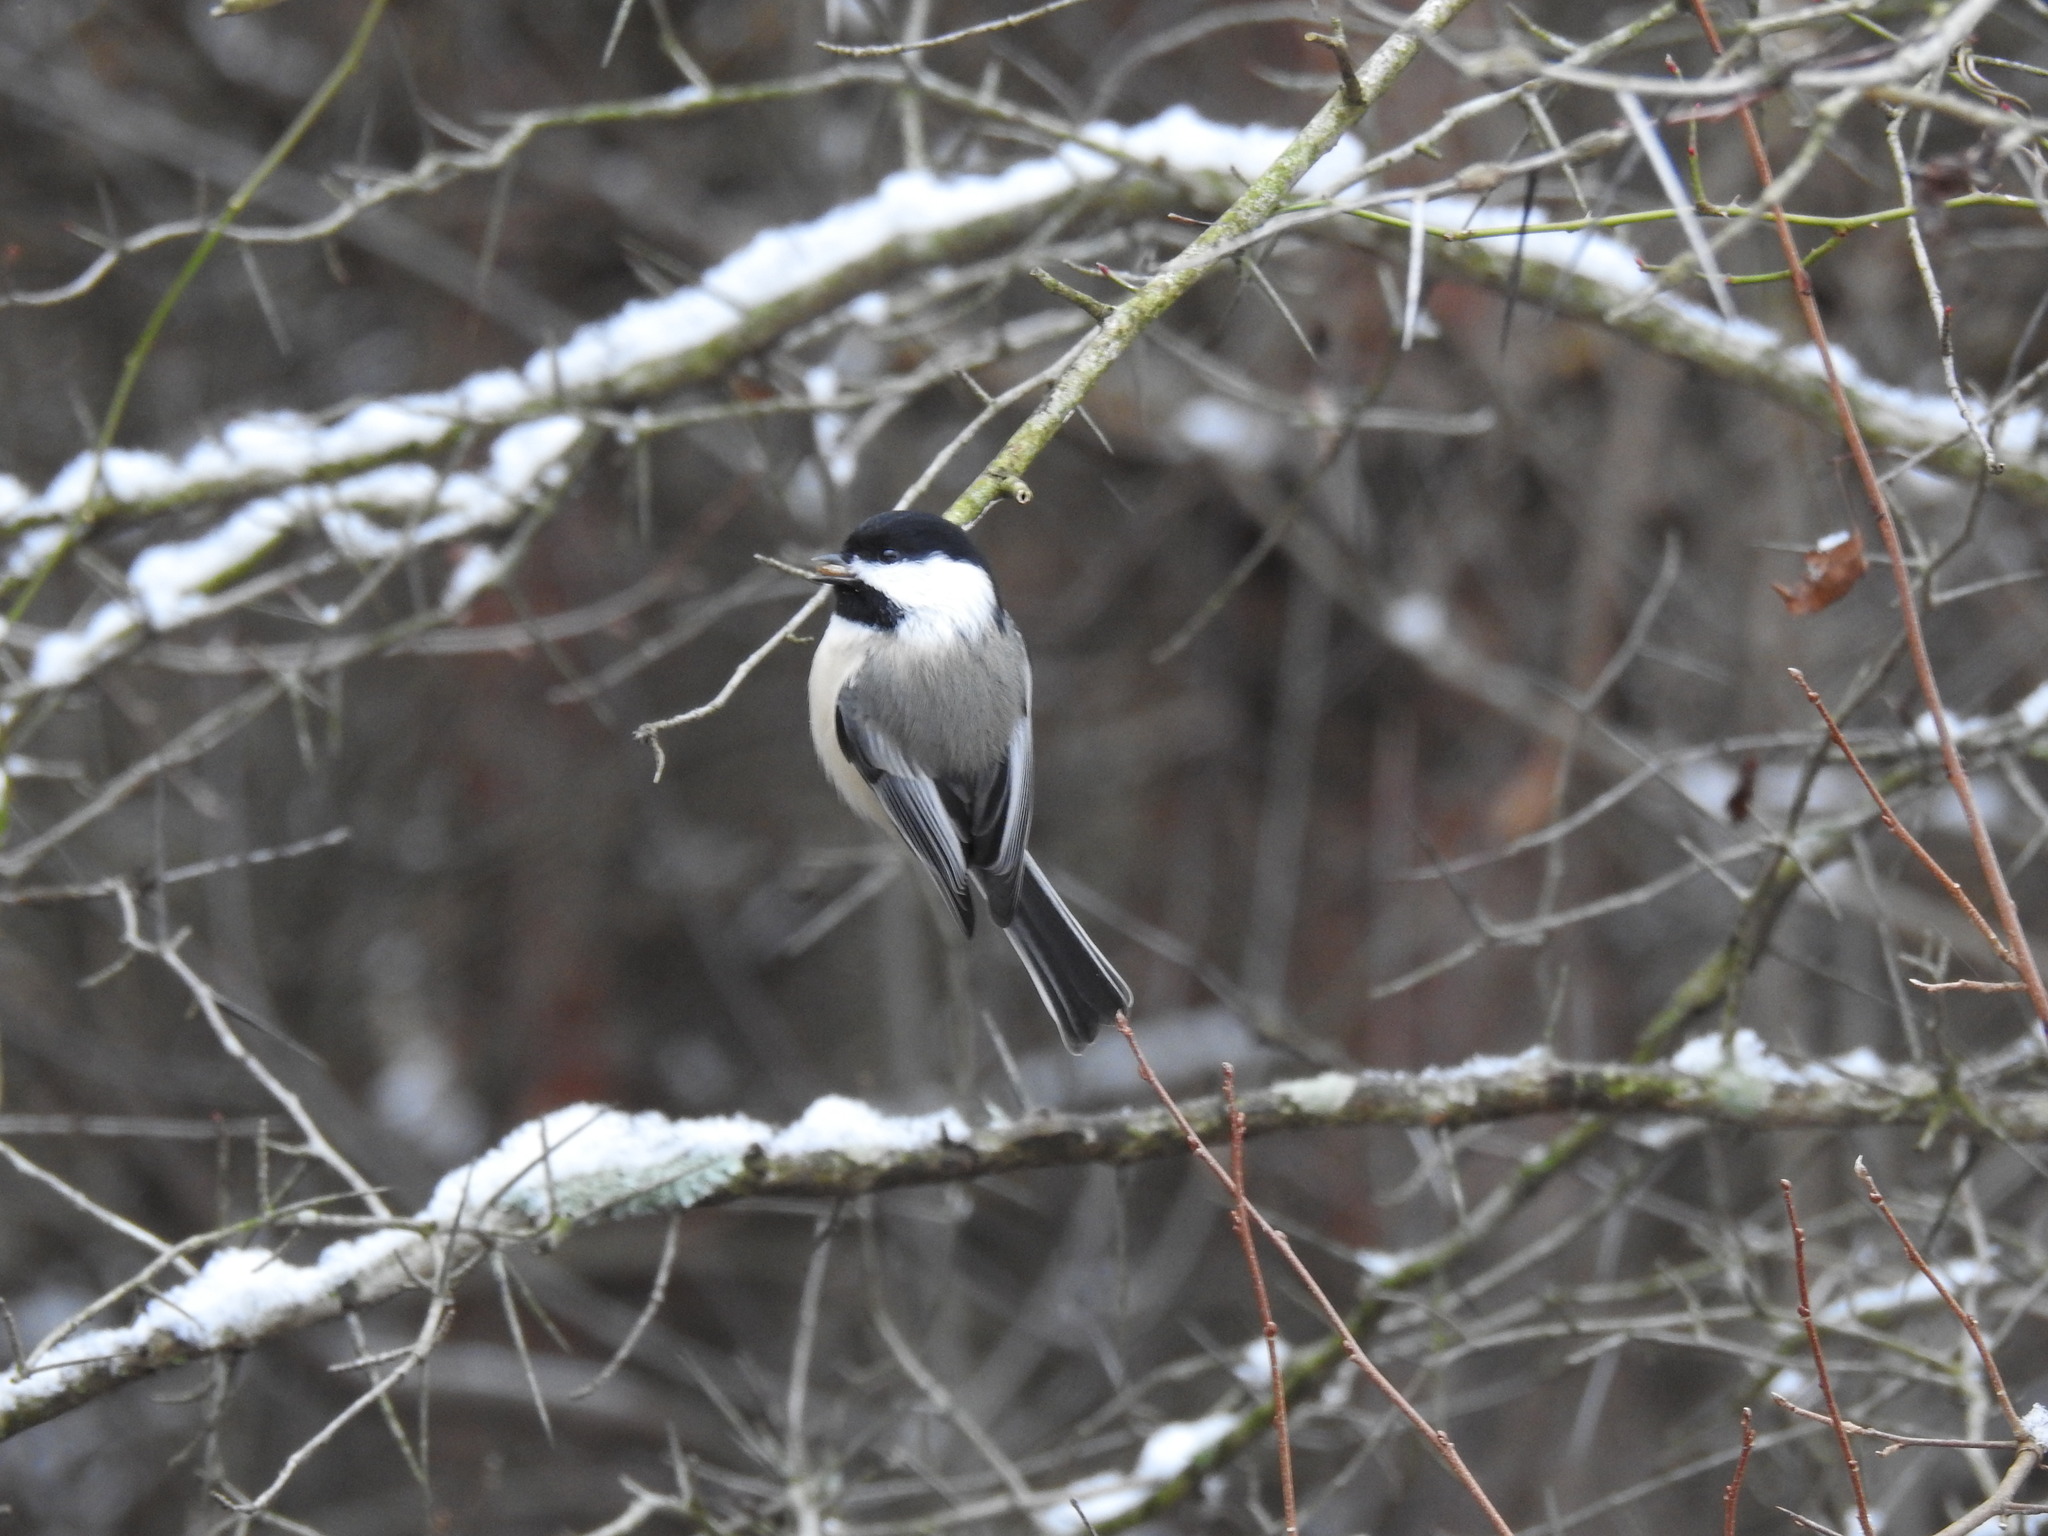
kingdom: Animalia
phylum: Chordata
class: Aves
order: Passeriformes
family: Paridae
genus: Poecile
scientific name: Poecile atricapillus
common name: Black-capped chickadee
